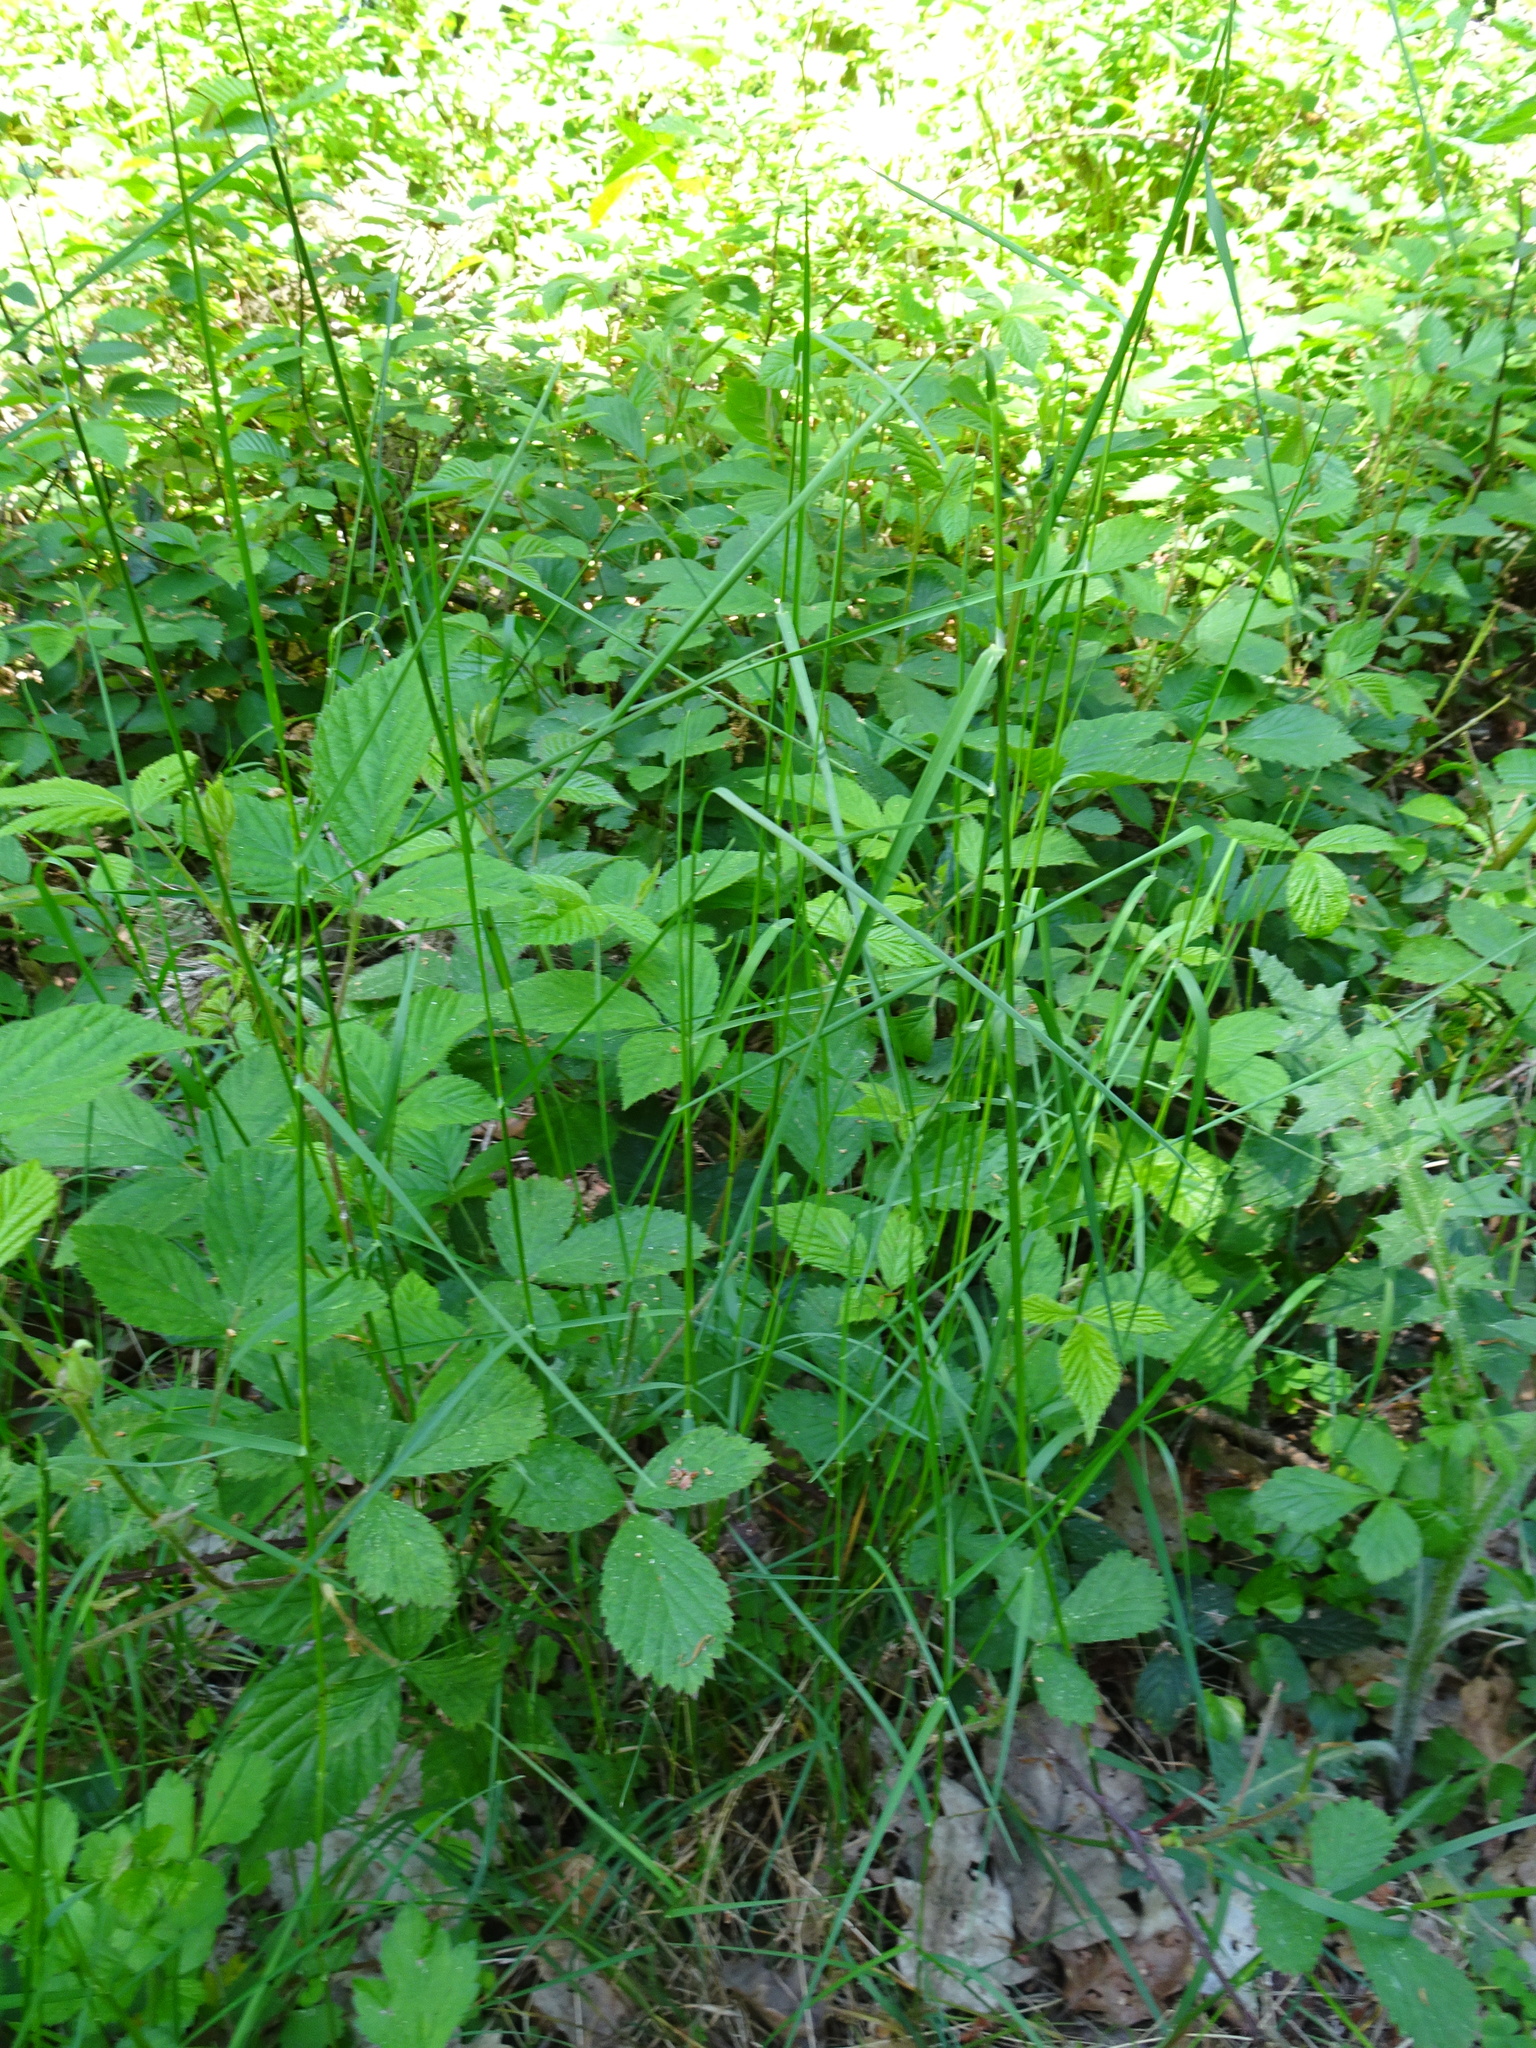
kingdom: Plantae
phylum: Tracheophyta
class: Liliopsida
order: Poales
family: Poaceae
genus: Poa
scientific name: Poa nemoralis
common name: Wood bluegrass
